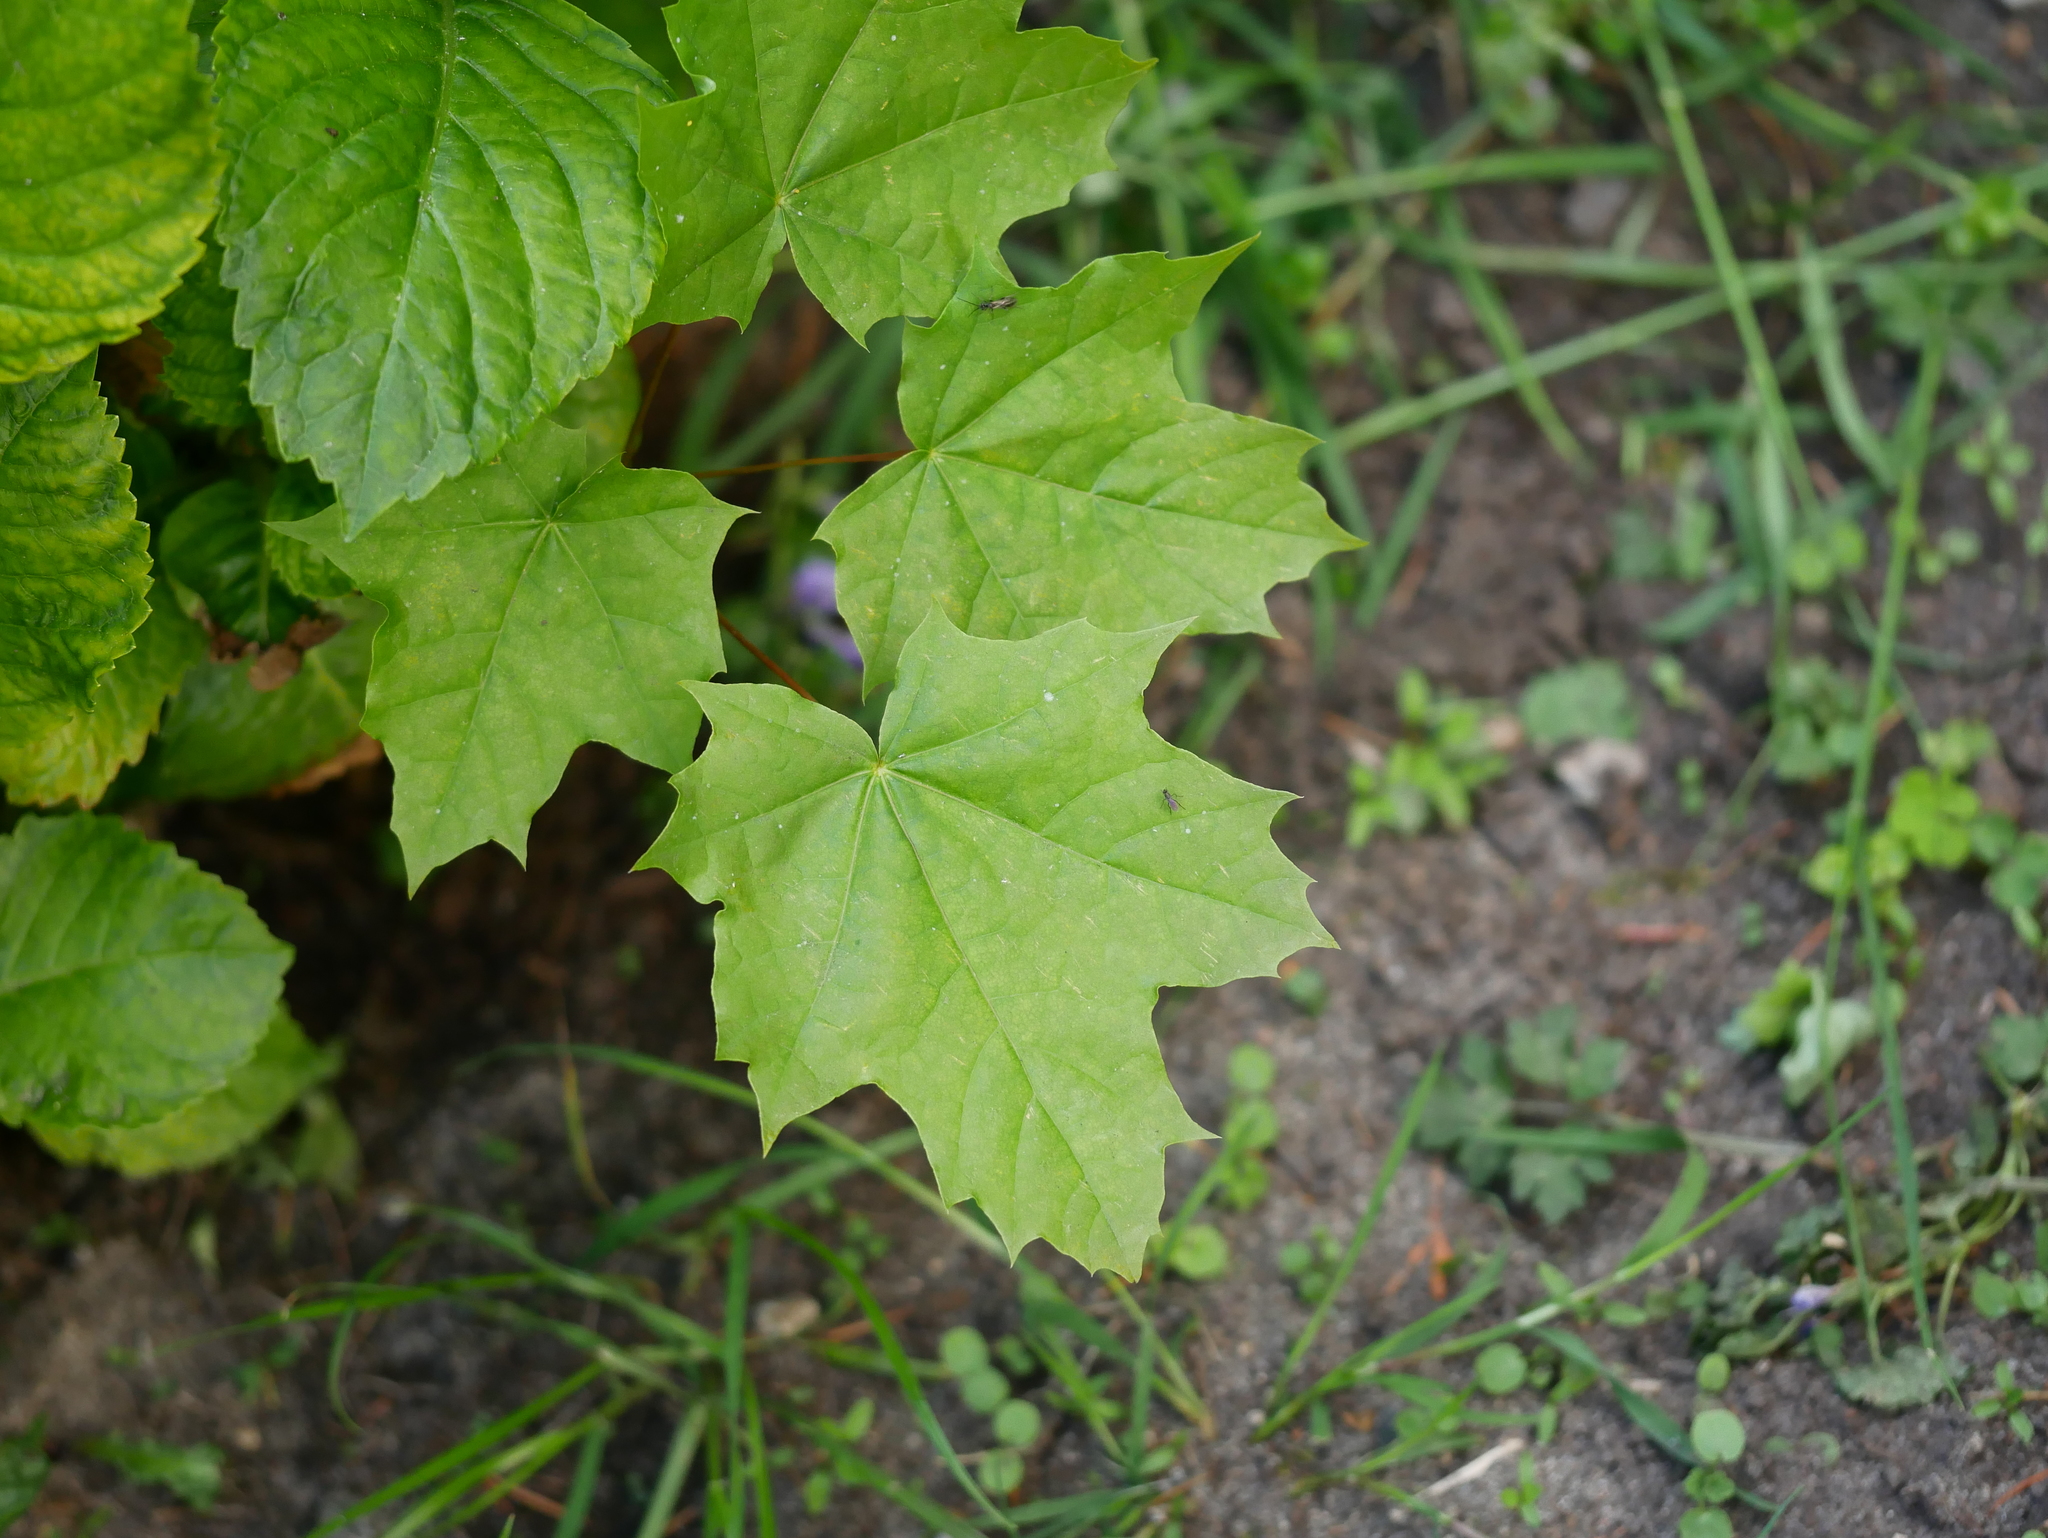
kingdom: Plantae
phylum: Tracheophyta
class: Magnoliopsida
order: Sapindales
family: Sapindaceae
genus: Acer
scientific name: Acer platanoides
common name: Norway maple
